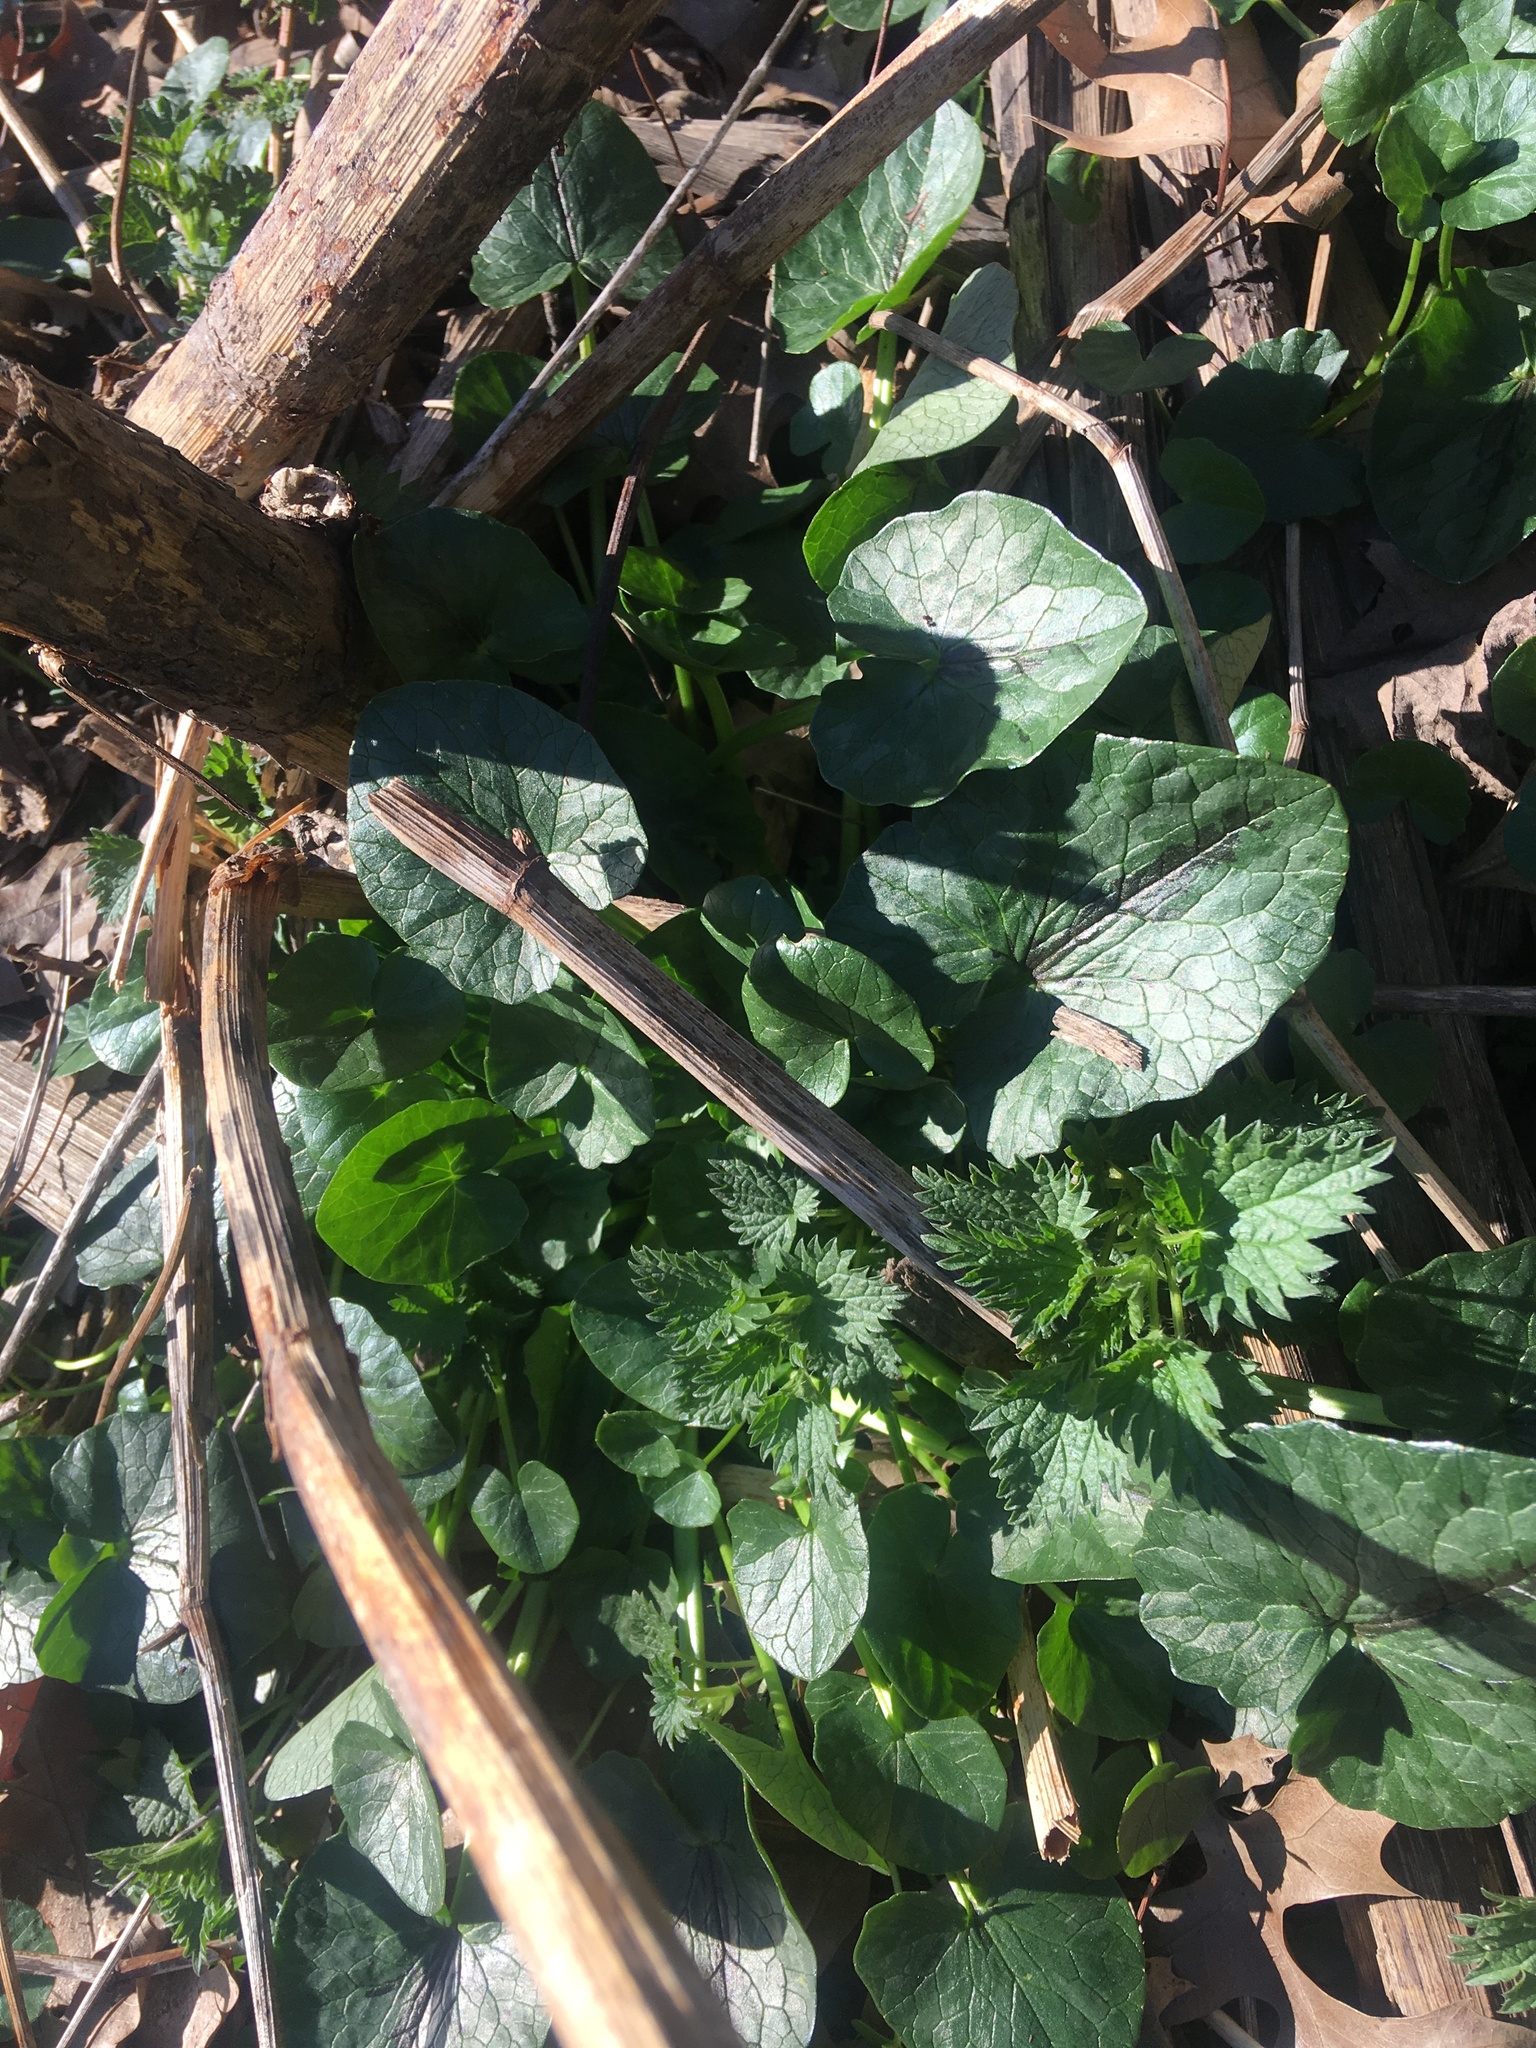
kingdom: Plantae
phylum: Tracheophyta
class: Magnoliopsida
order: Ranunculales
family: Ranunculaceae
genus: Ficaria
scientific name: Ficaria verna
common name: Lesser celandine
